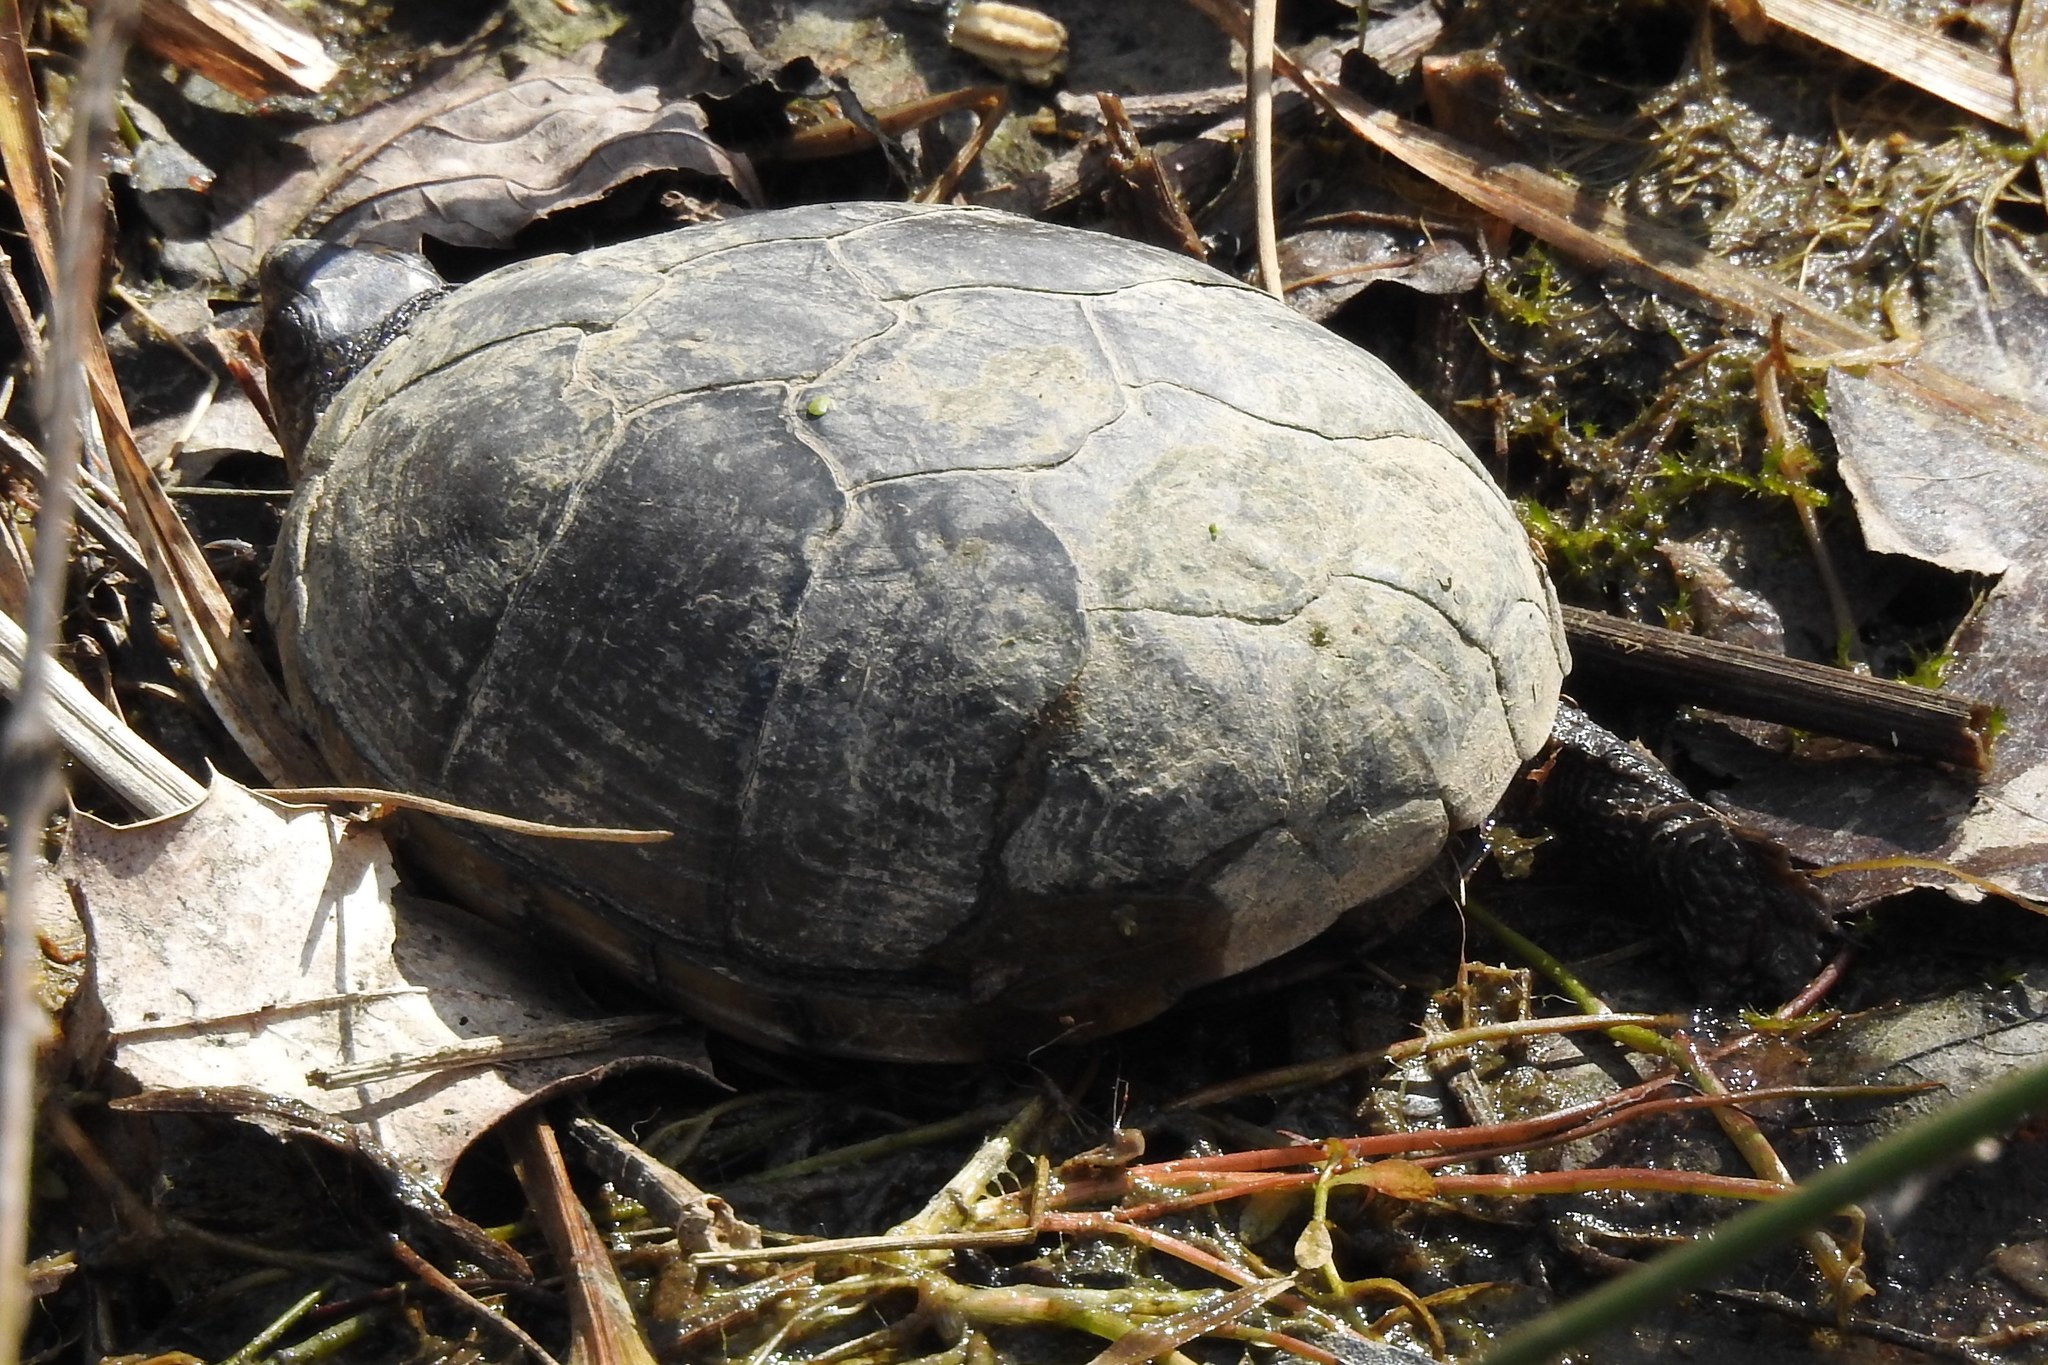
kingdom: Animalia
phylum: Chordata
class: Testudines
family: Kinosternidae
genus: Kinosternon
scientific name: Kinosternon subrubrum
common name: Eastern mud turtle
